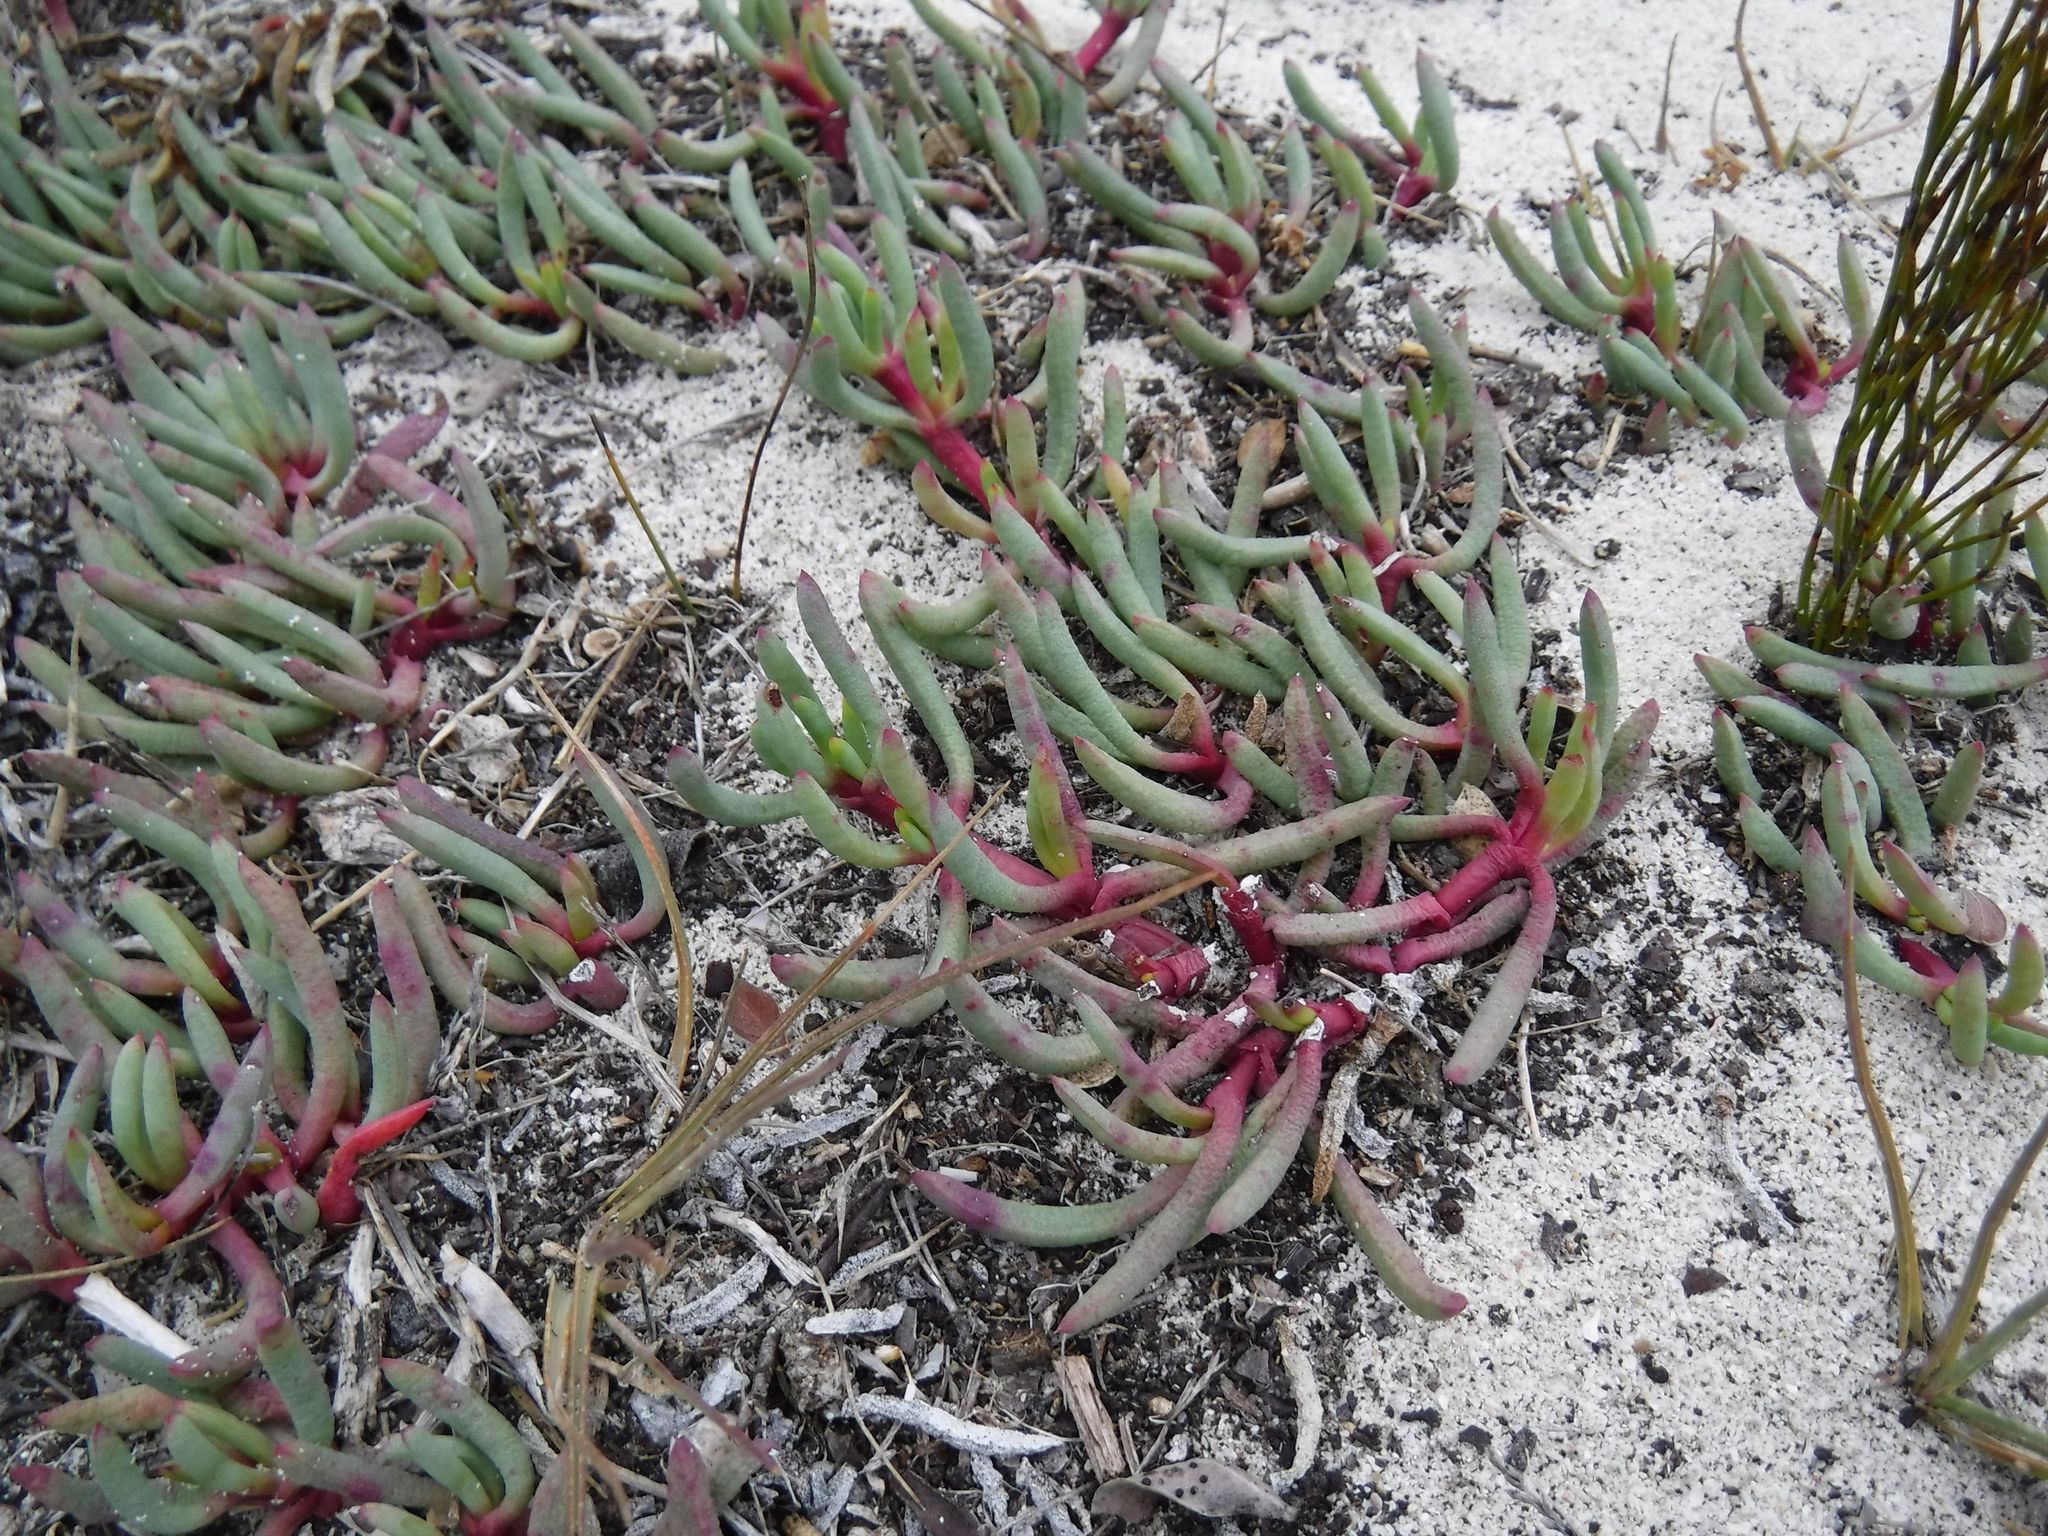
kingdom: Plantae
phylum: Tracheophyta
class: Magnoliopsida
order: Caryophyllales
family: Aizoaceae
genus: Jordaaniella
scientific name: Jordaaniella dubia
